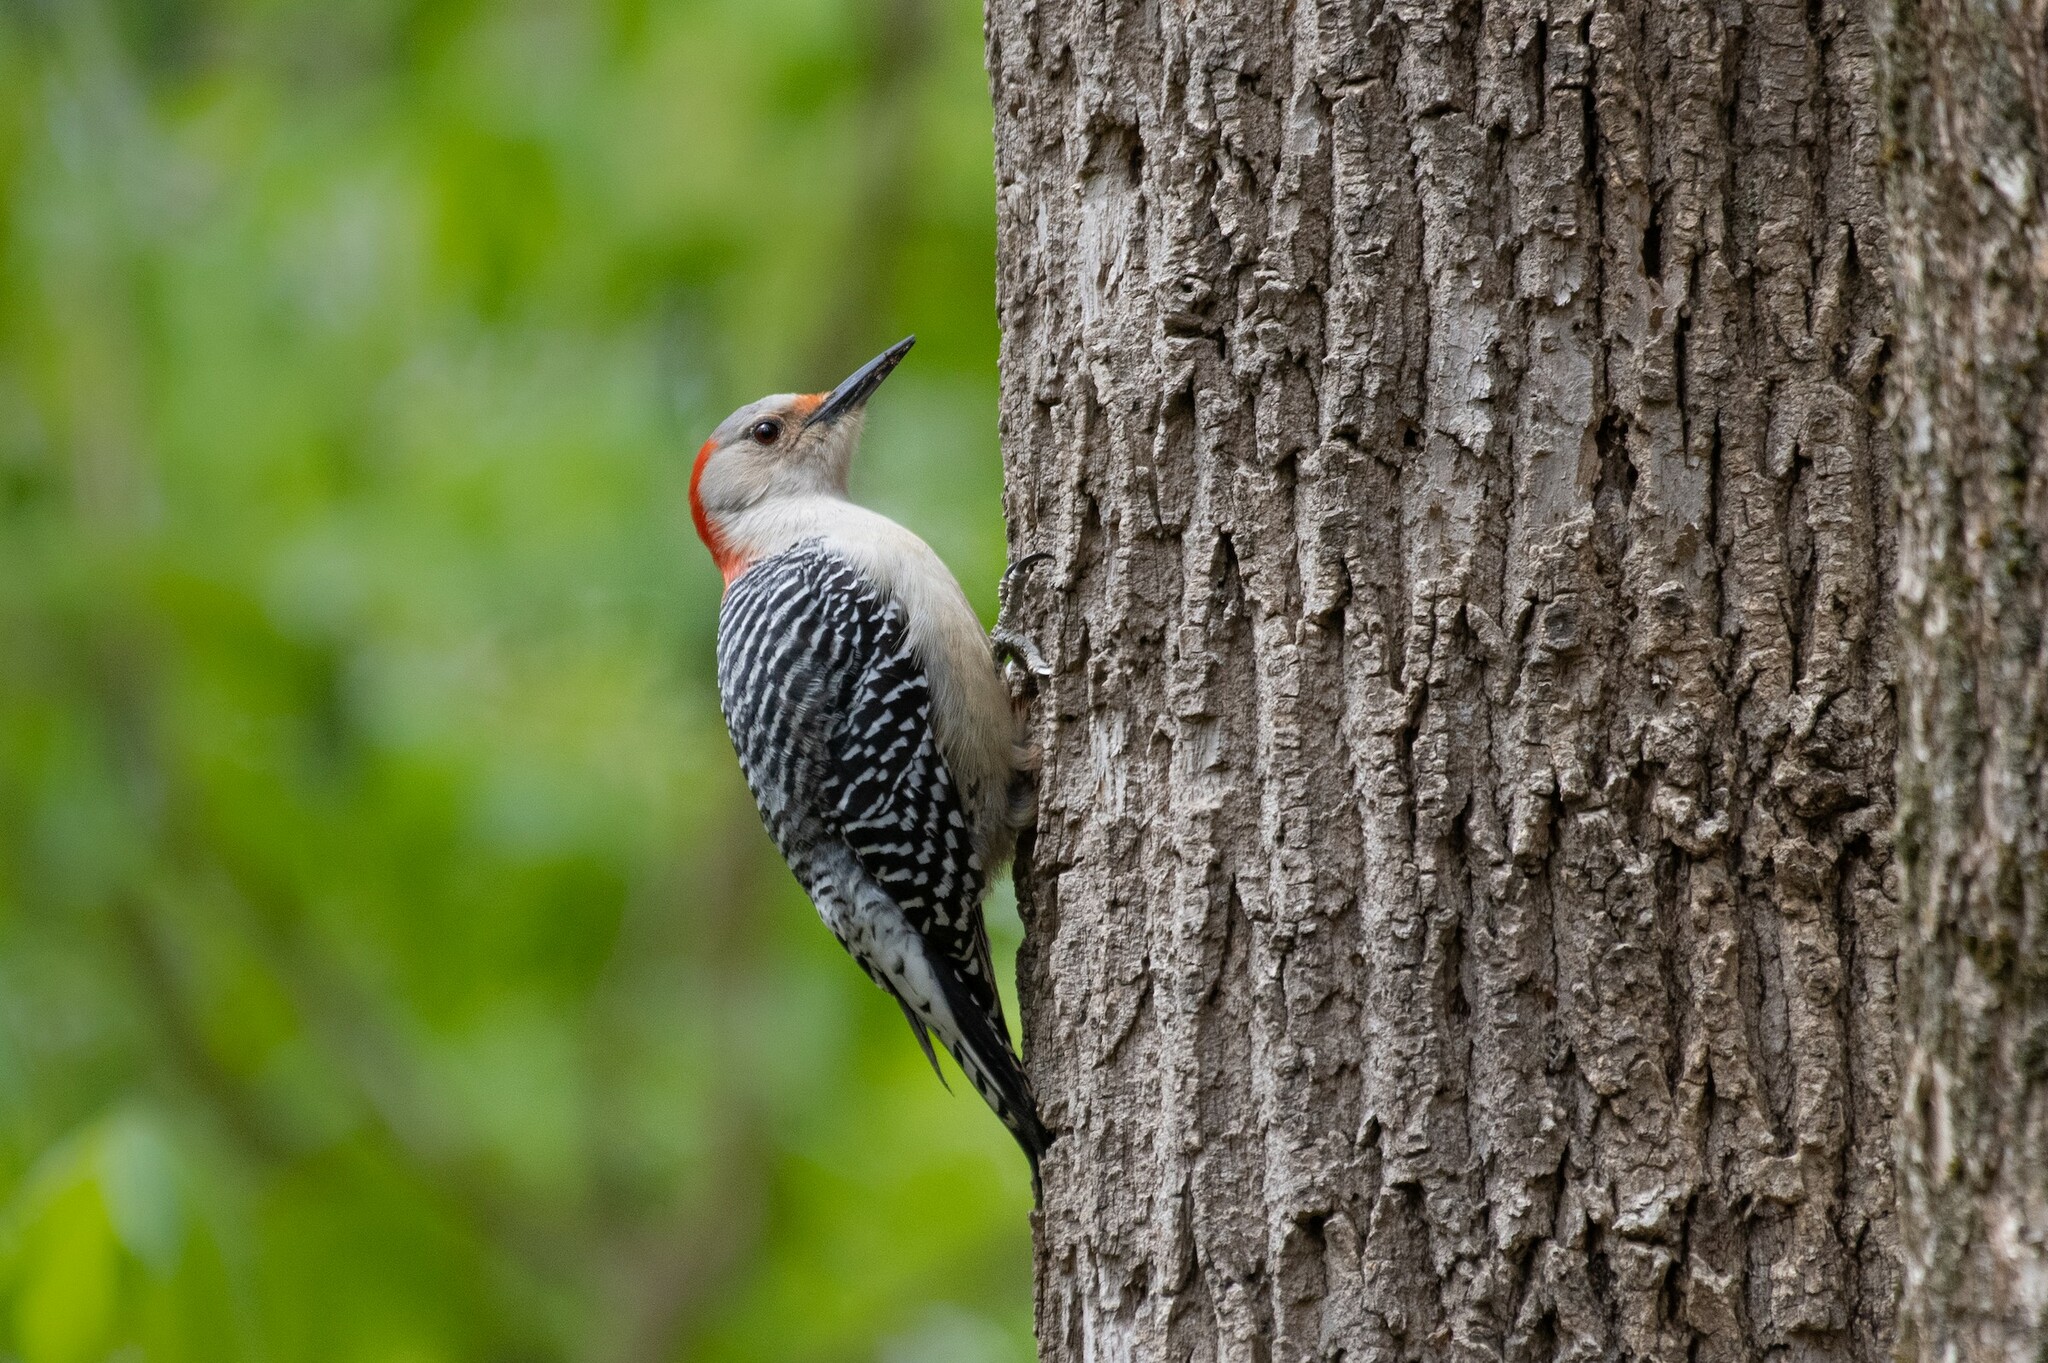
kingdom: Animalia
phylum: Chordata
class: Aves
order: Piciformes
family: Picidae
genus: Melanerpes
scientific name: Melanerpes carolinus
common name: Red-bellied woodpecker
